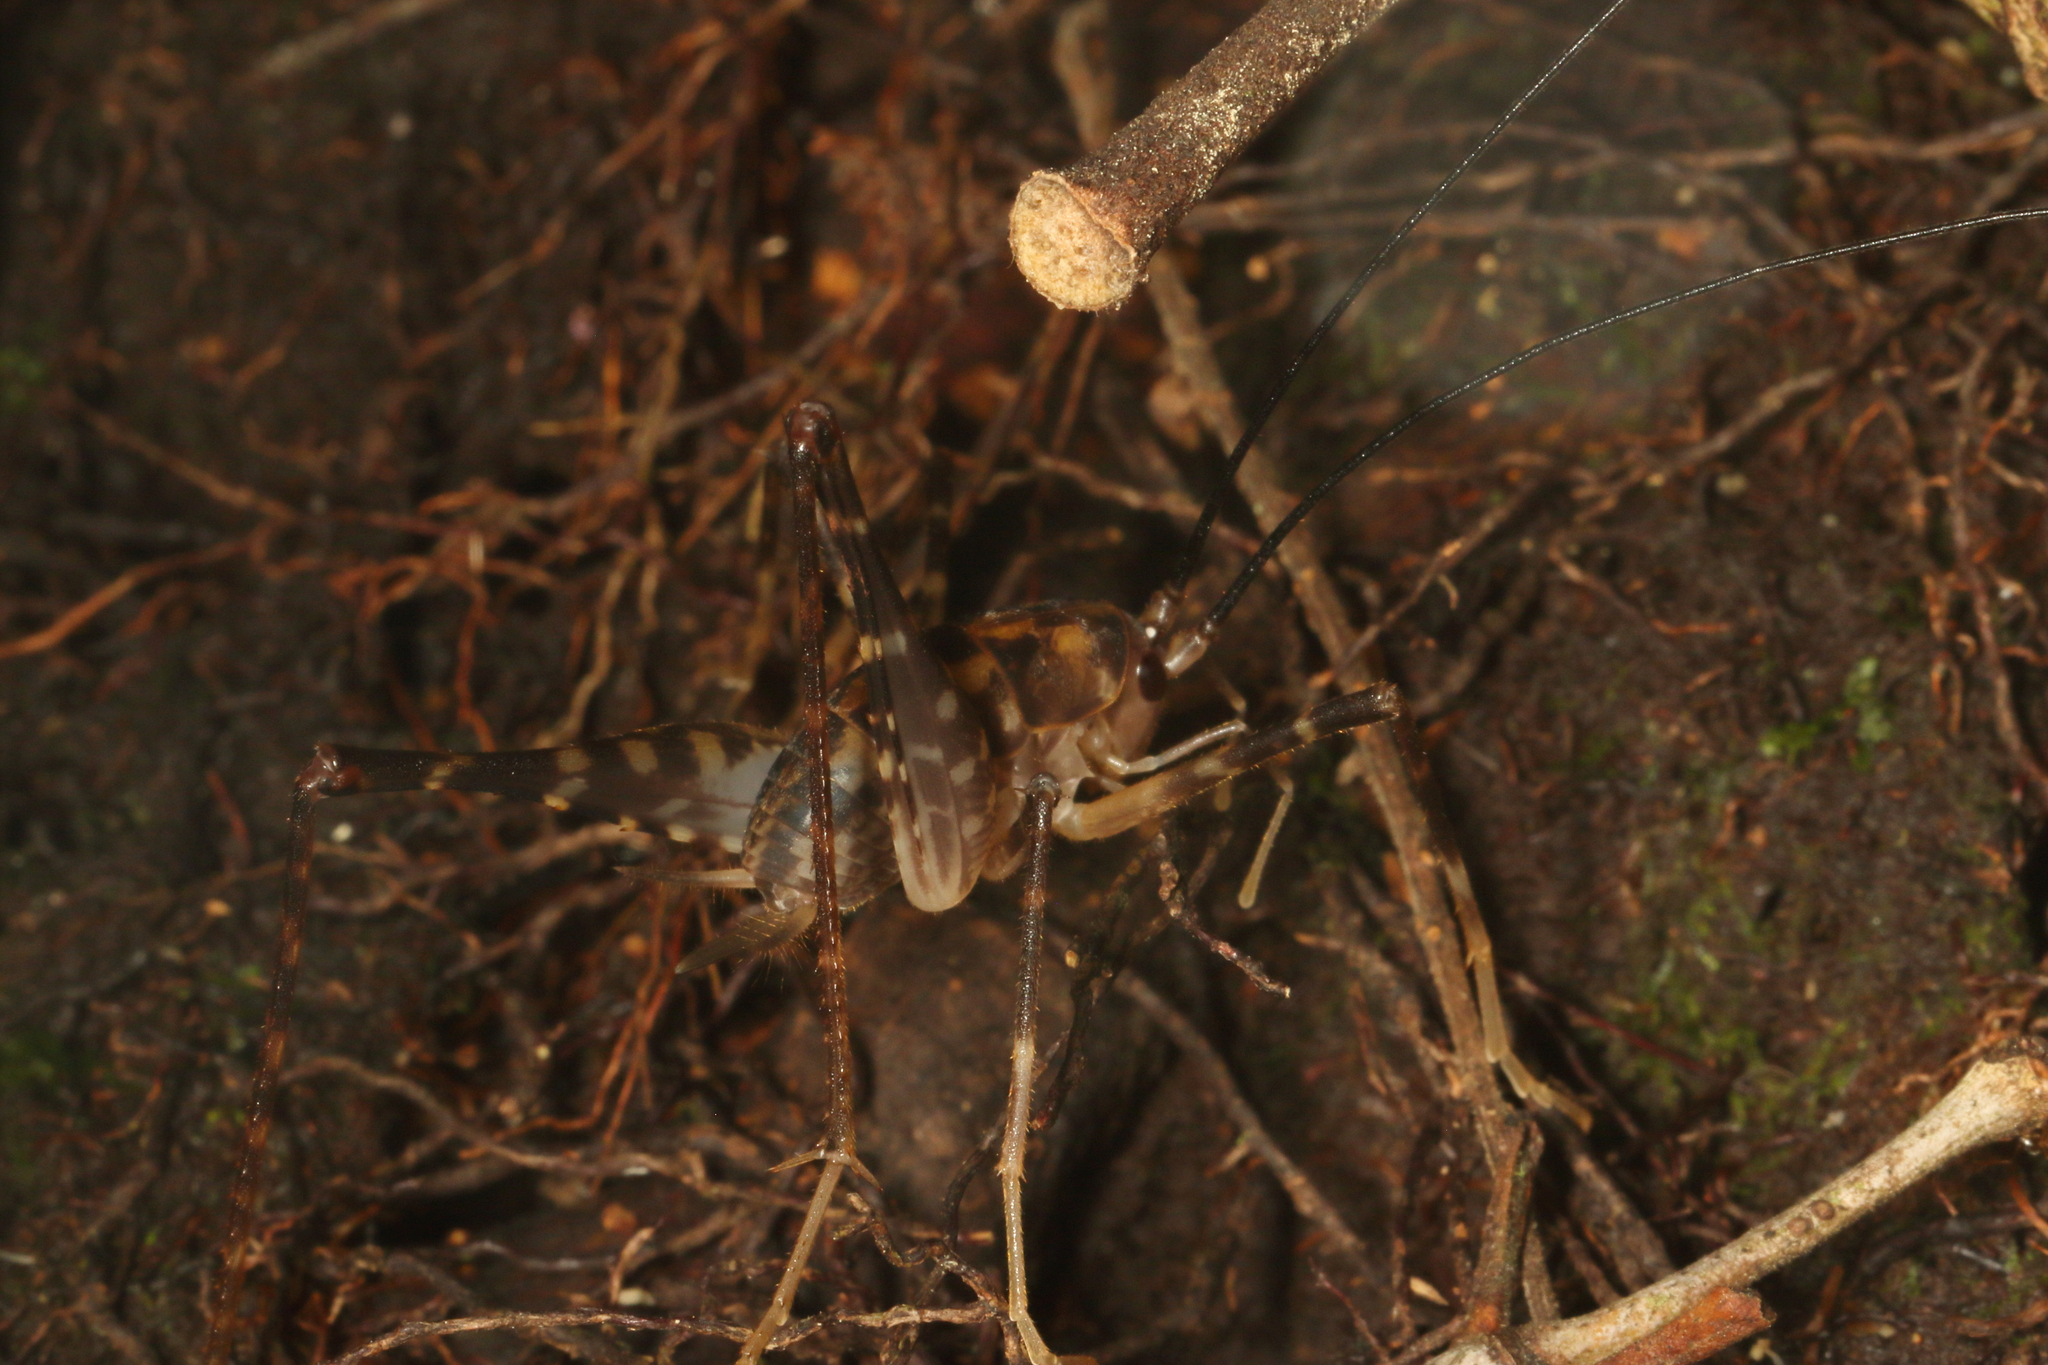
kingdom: Animalia
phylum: Arthropoda
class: Insecta
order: Orthoptera
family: Rhaphidophoridae
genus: Pachyrhamma
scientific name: Pachyrhamma uncata
